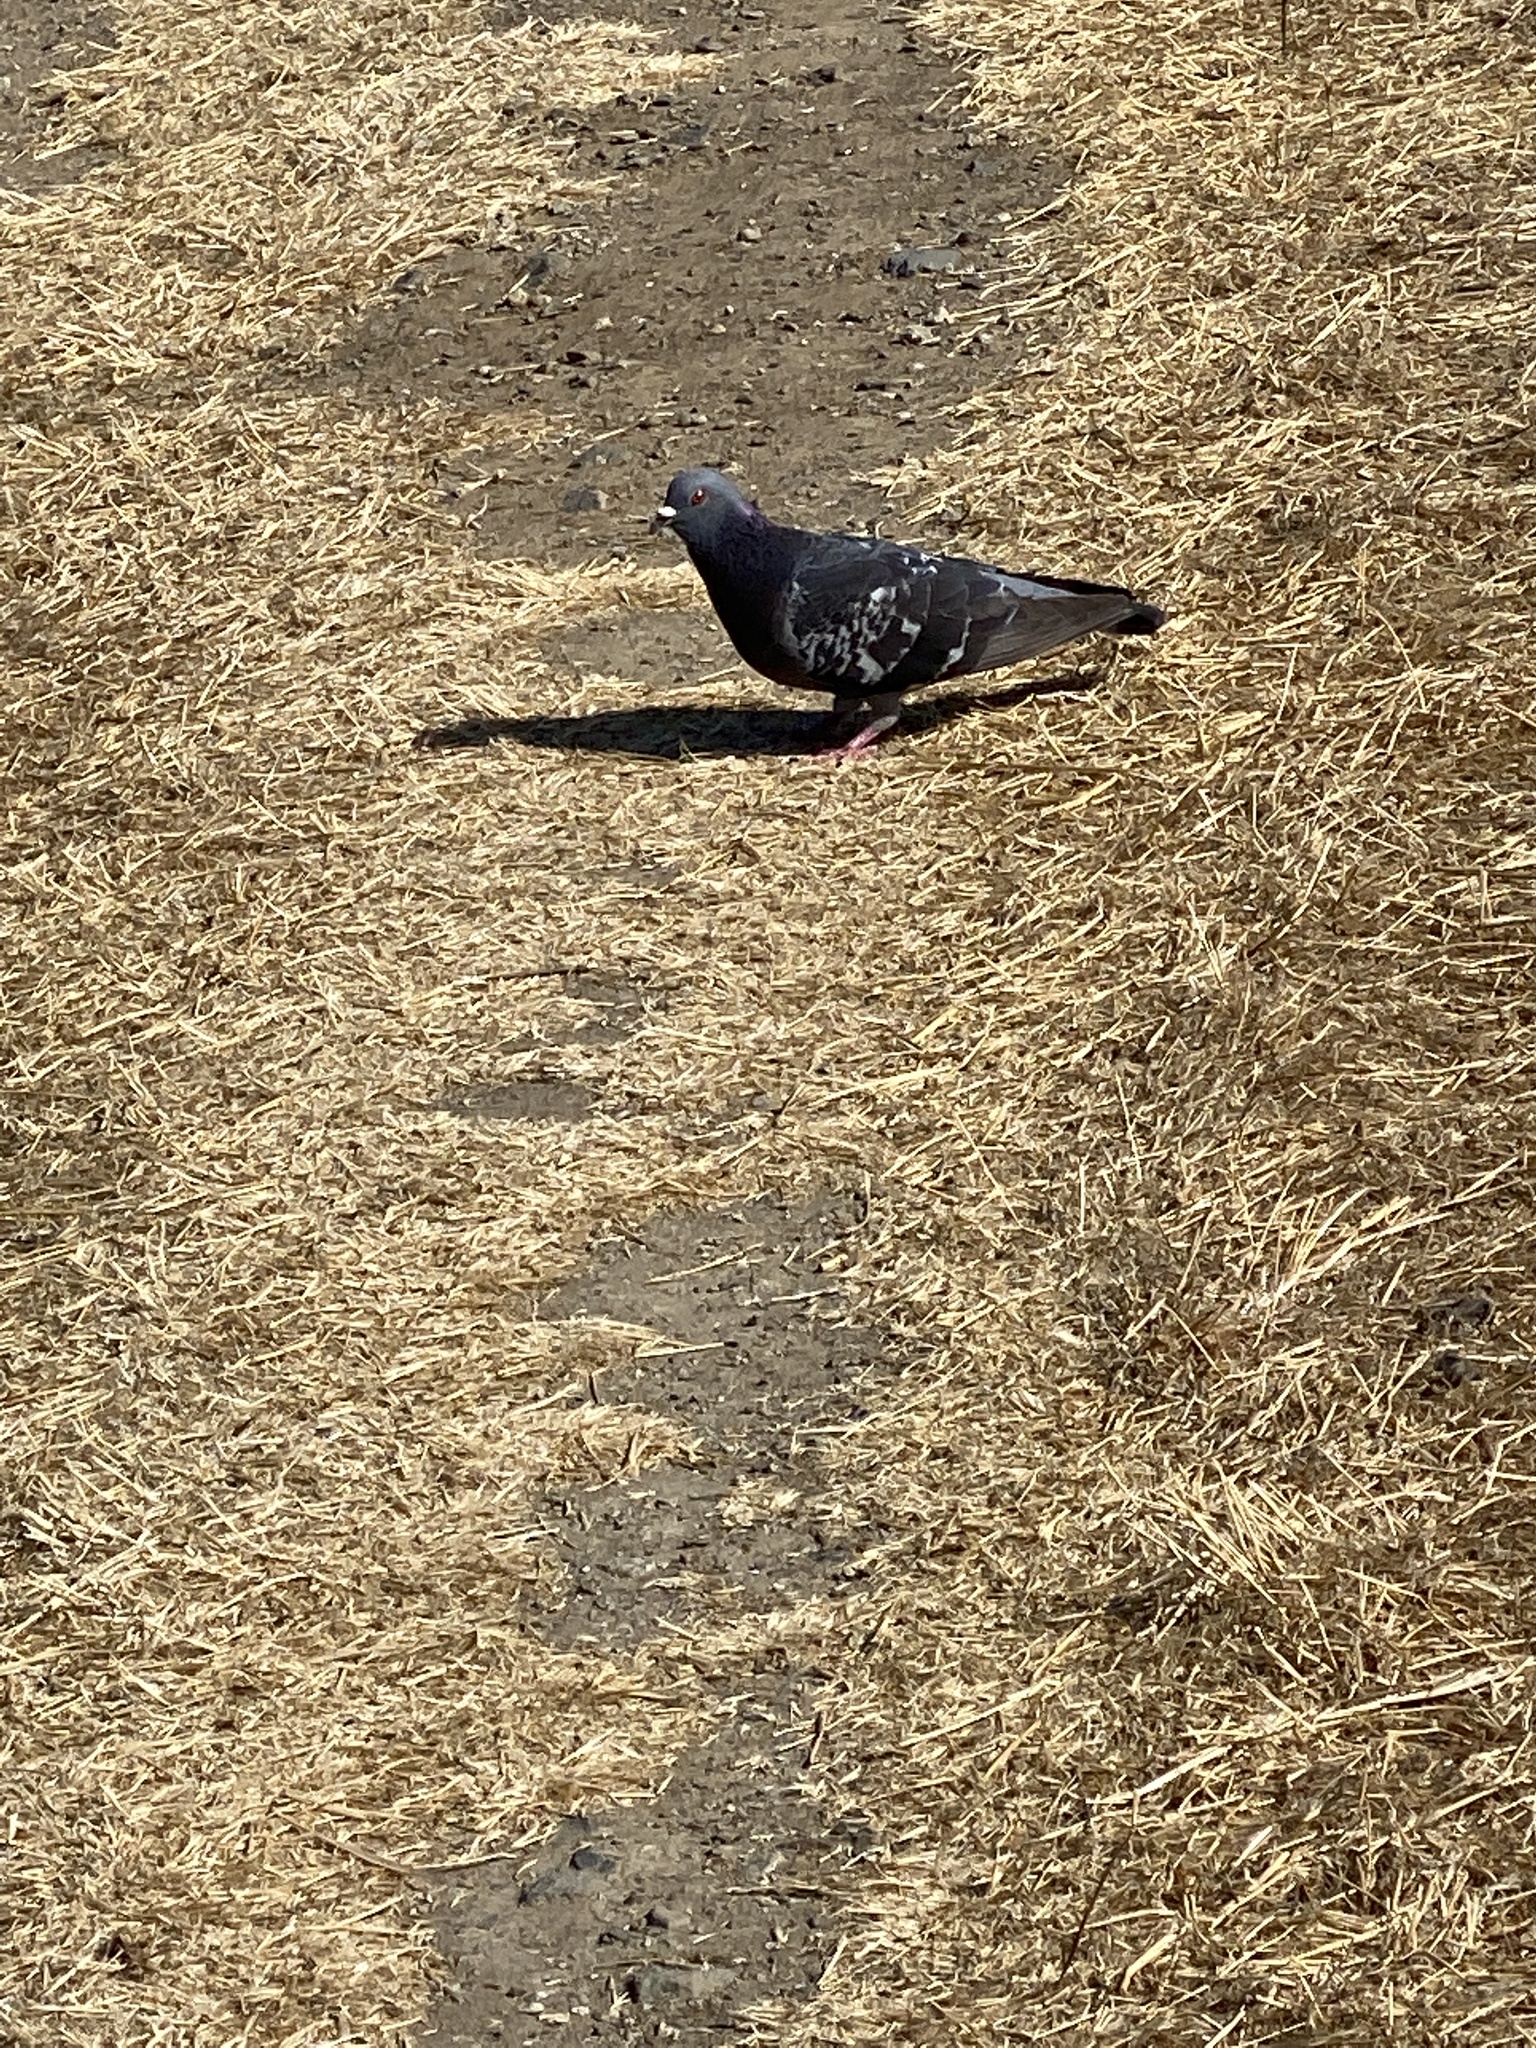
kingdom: Animalia
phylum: Chordata
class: Aves
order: Columbiformes
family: Columbidae
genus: Columba
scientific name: Columba livia
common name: Rock pigeon
